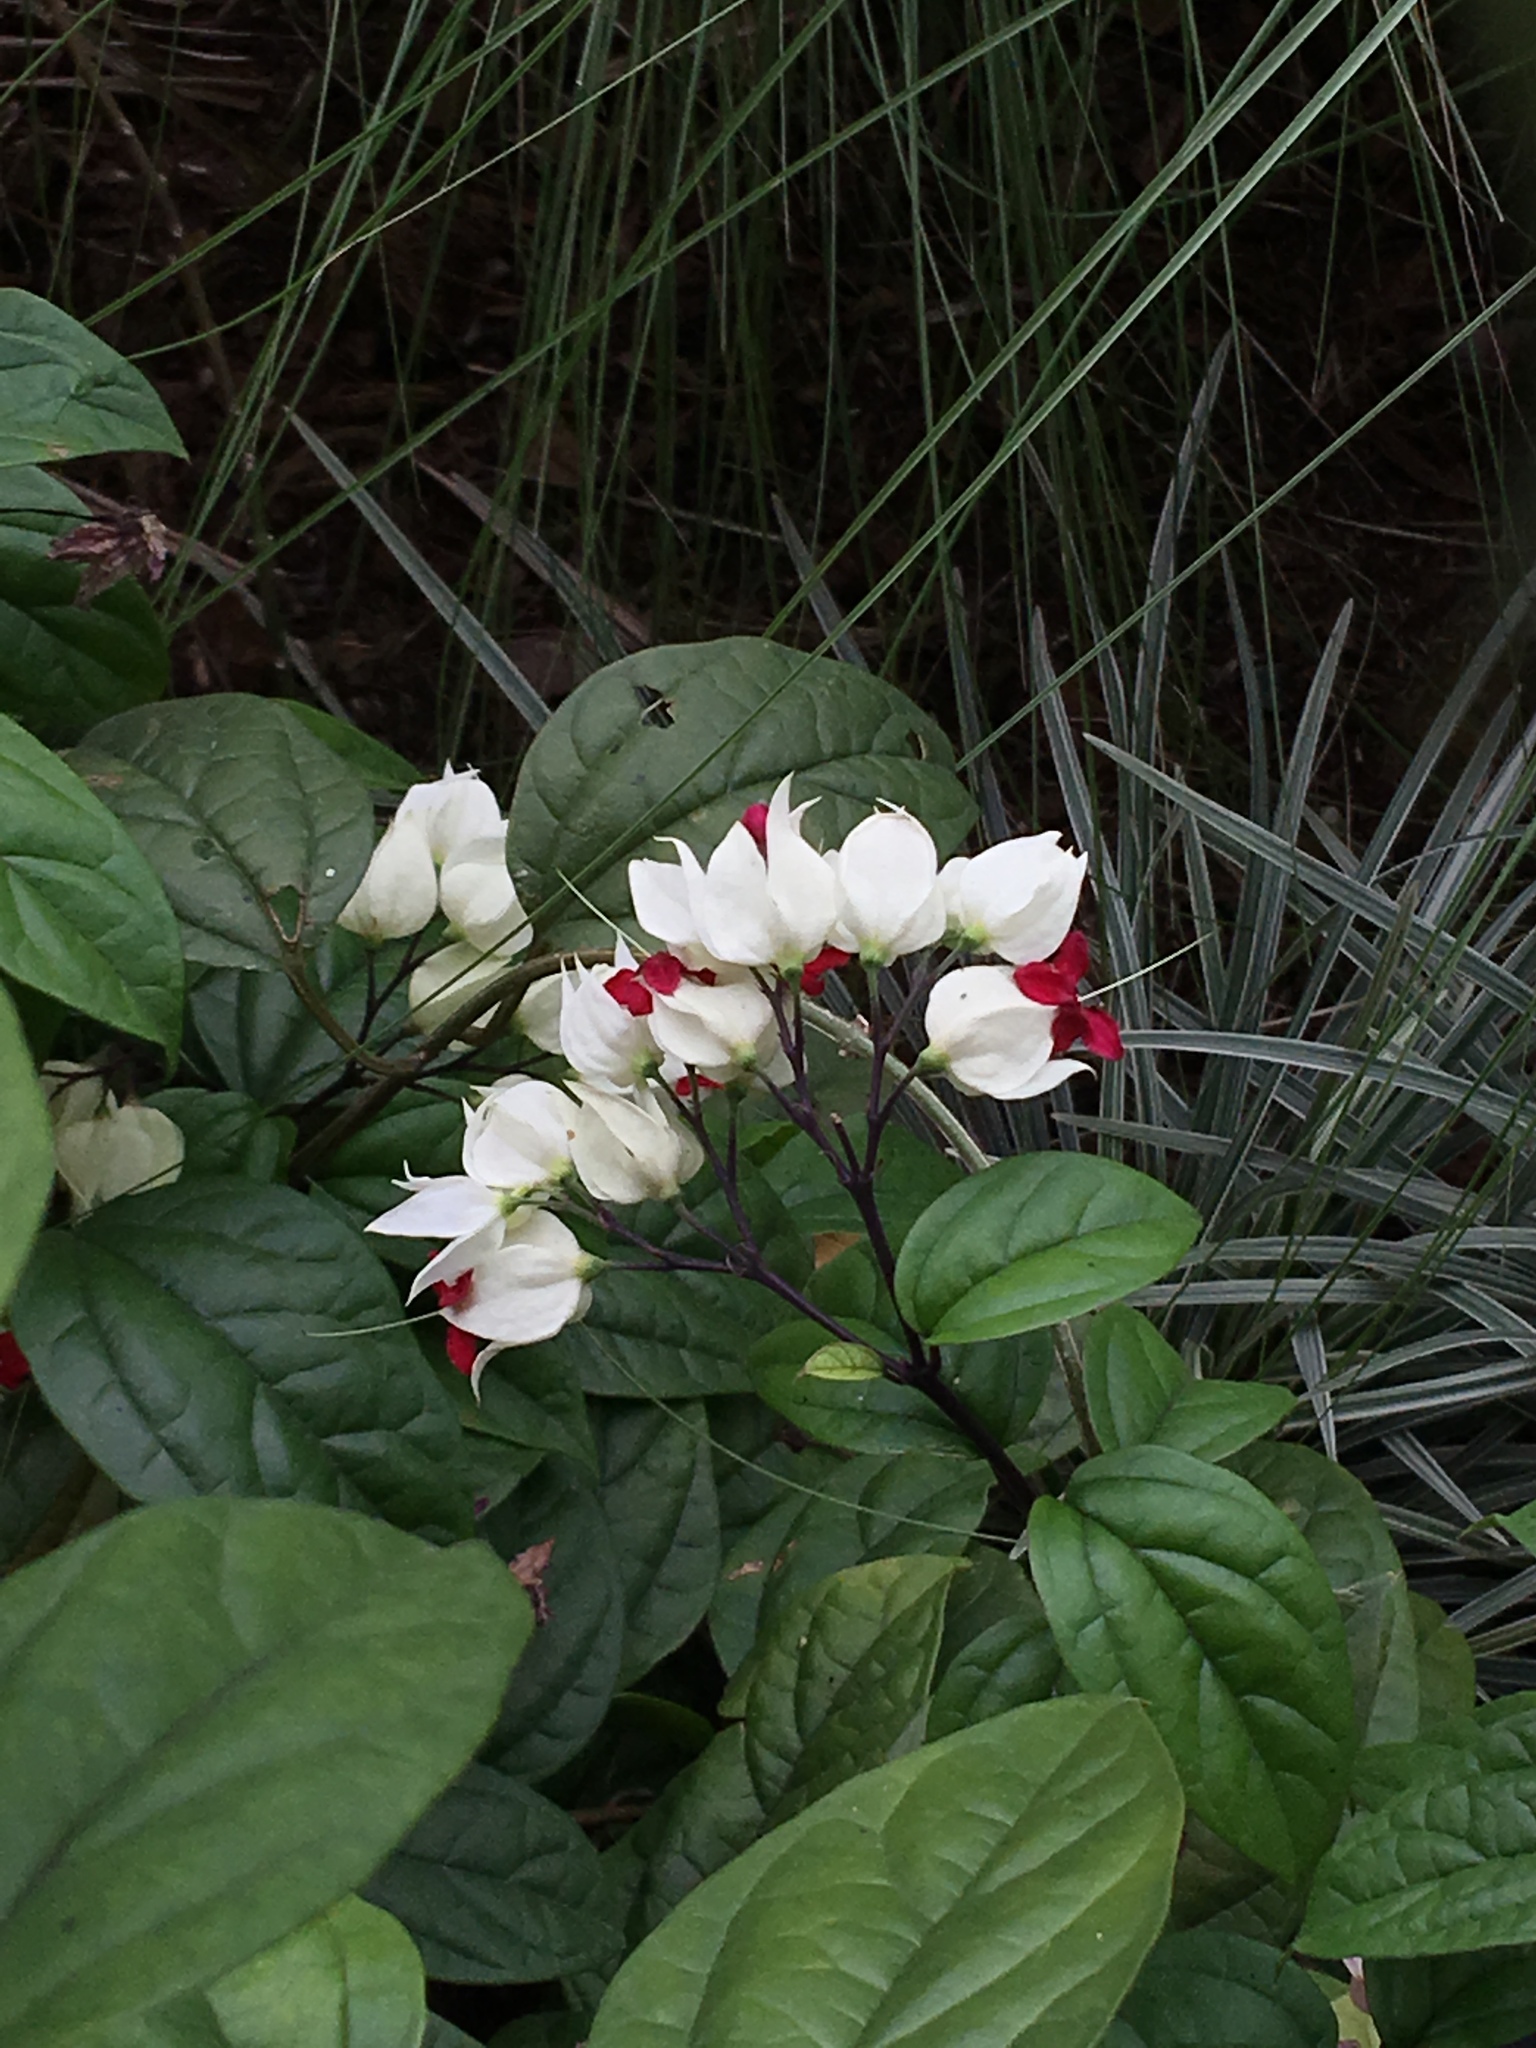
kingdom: Plantae
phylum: Tracheophyta
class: Magnoliopsida
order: Lamiales
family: Lamiaceae
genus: Clerodendrum
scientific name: Clerodendrum thomsoniae
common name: Bagflower
